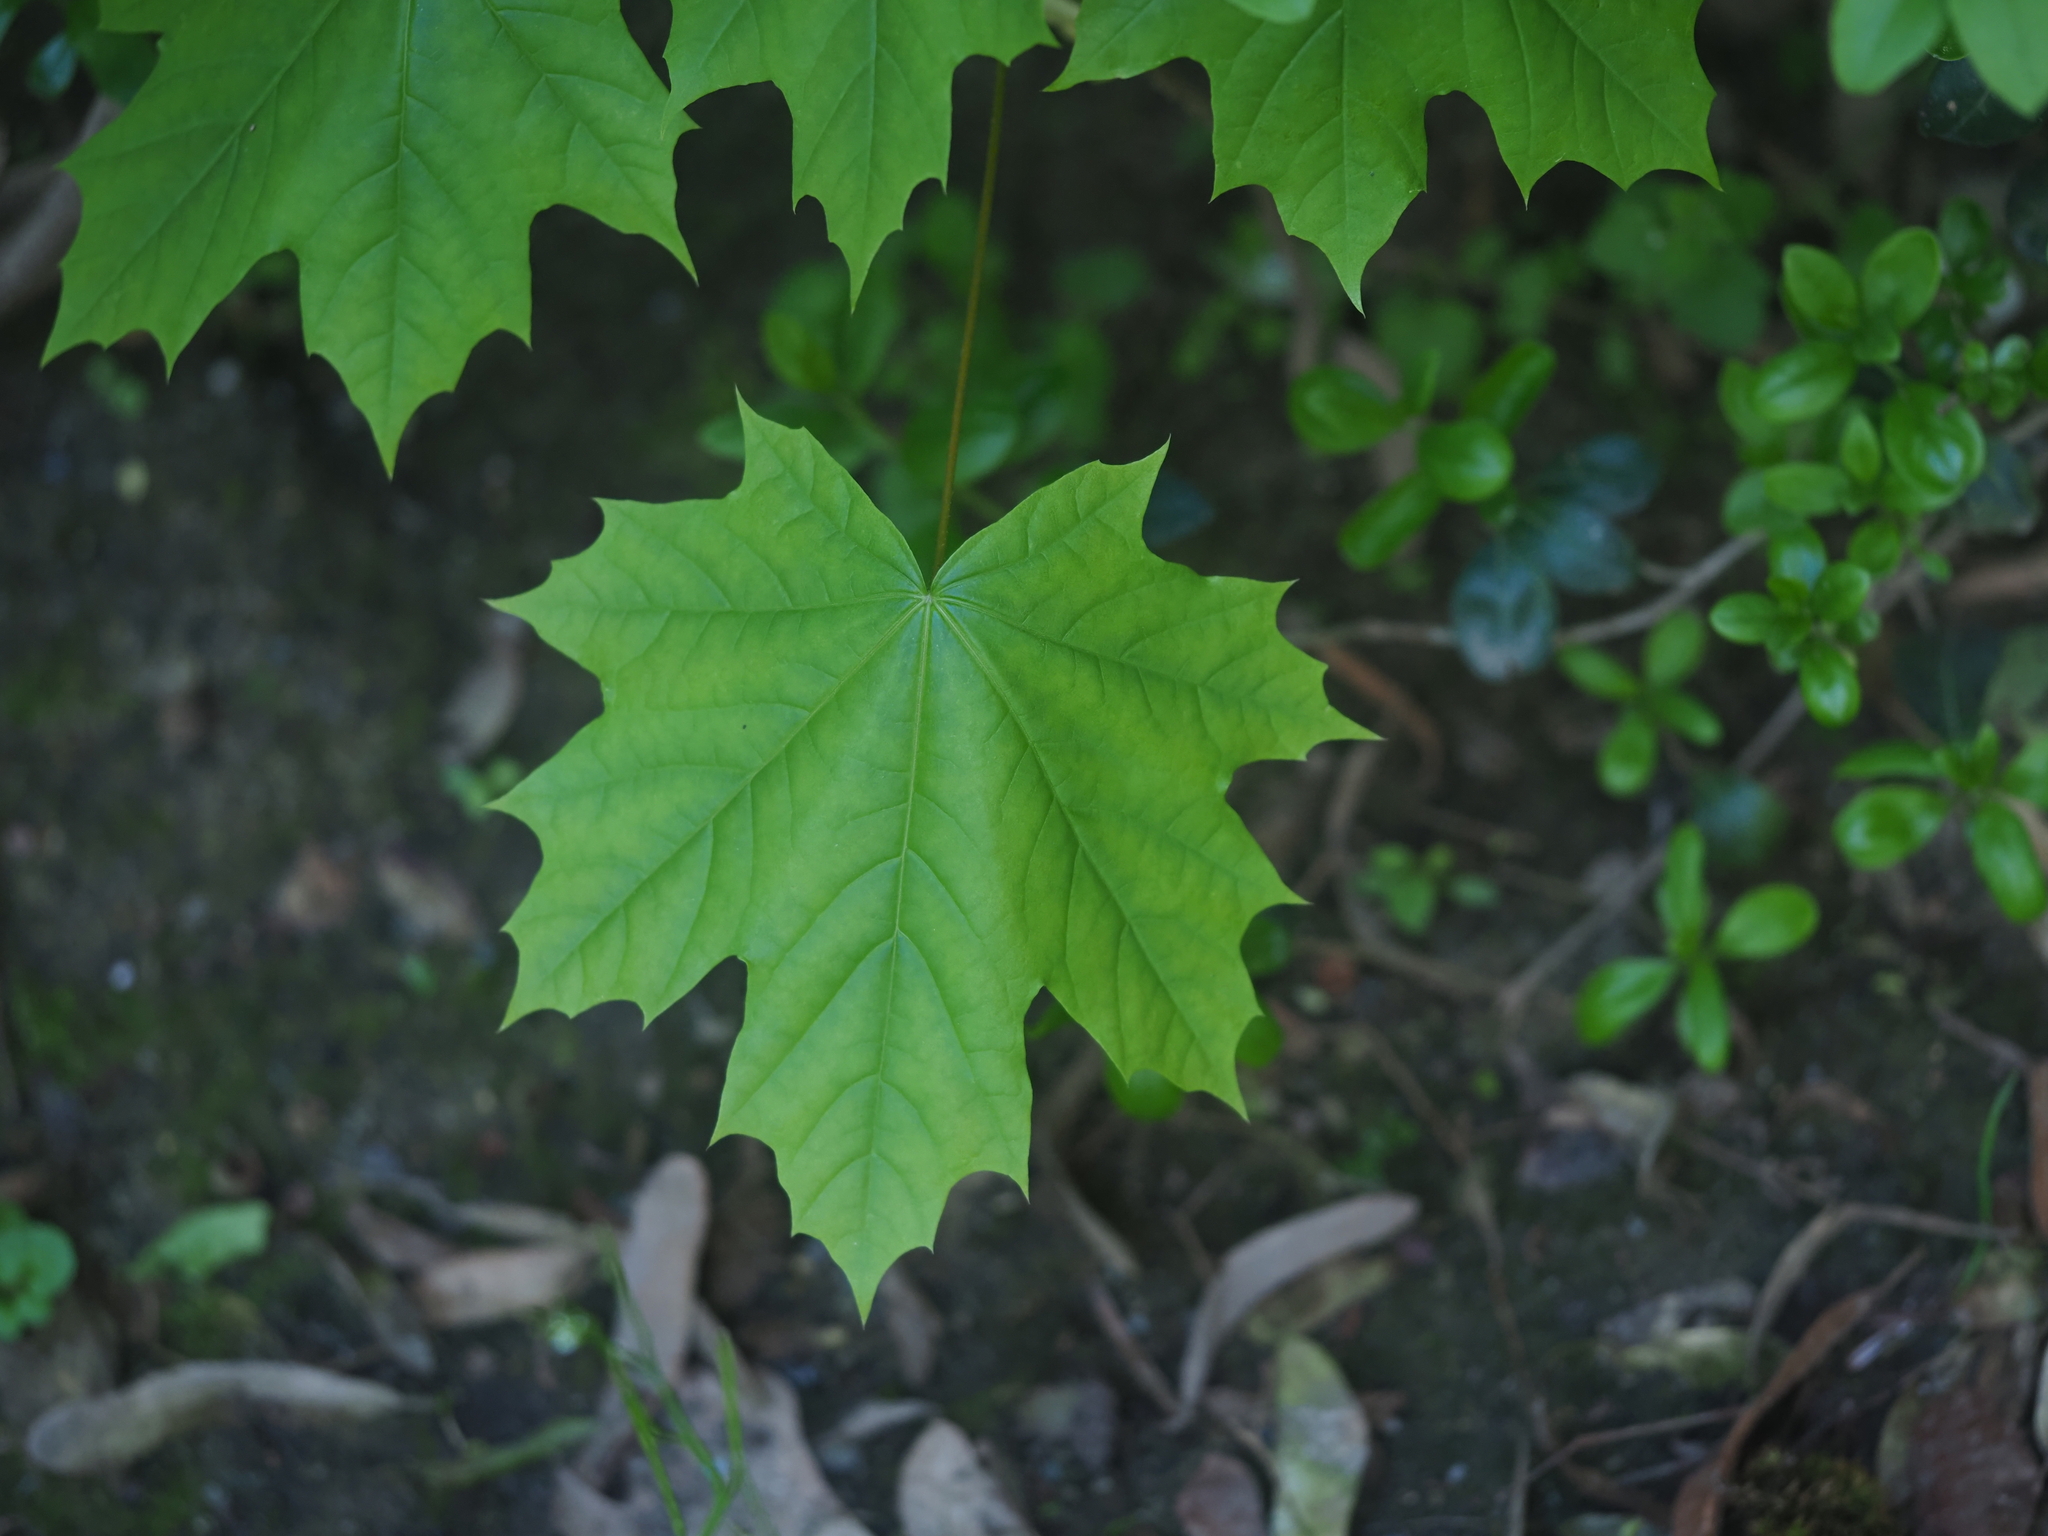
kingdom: Plantae
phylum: Tracheophyta
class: Magnoliopsida
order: Sapindales
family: Sapindaceae
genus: Acer
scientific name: Acer platanoides
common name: Norway maple
